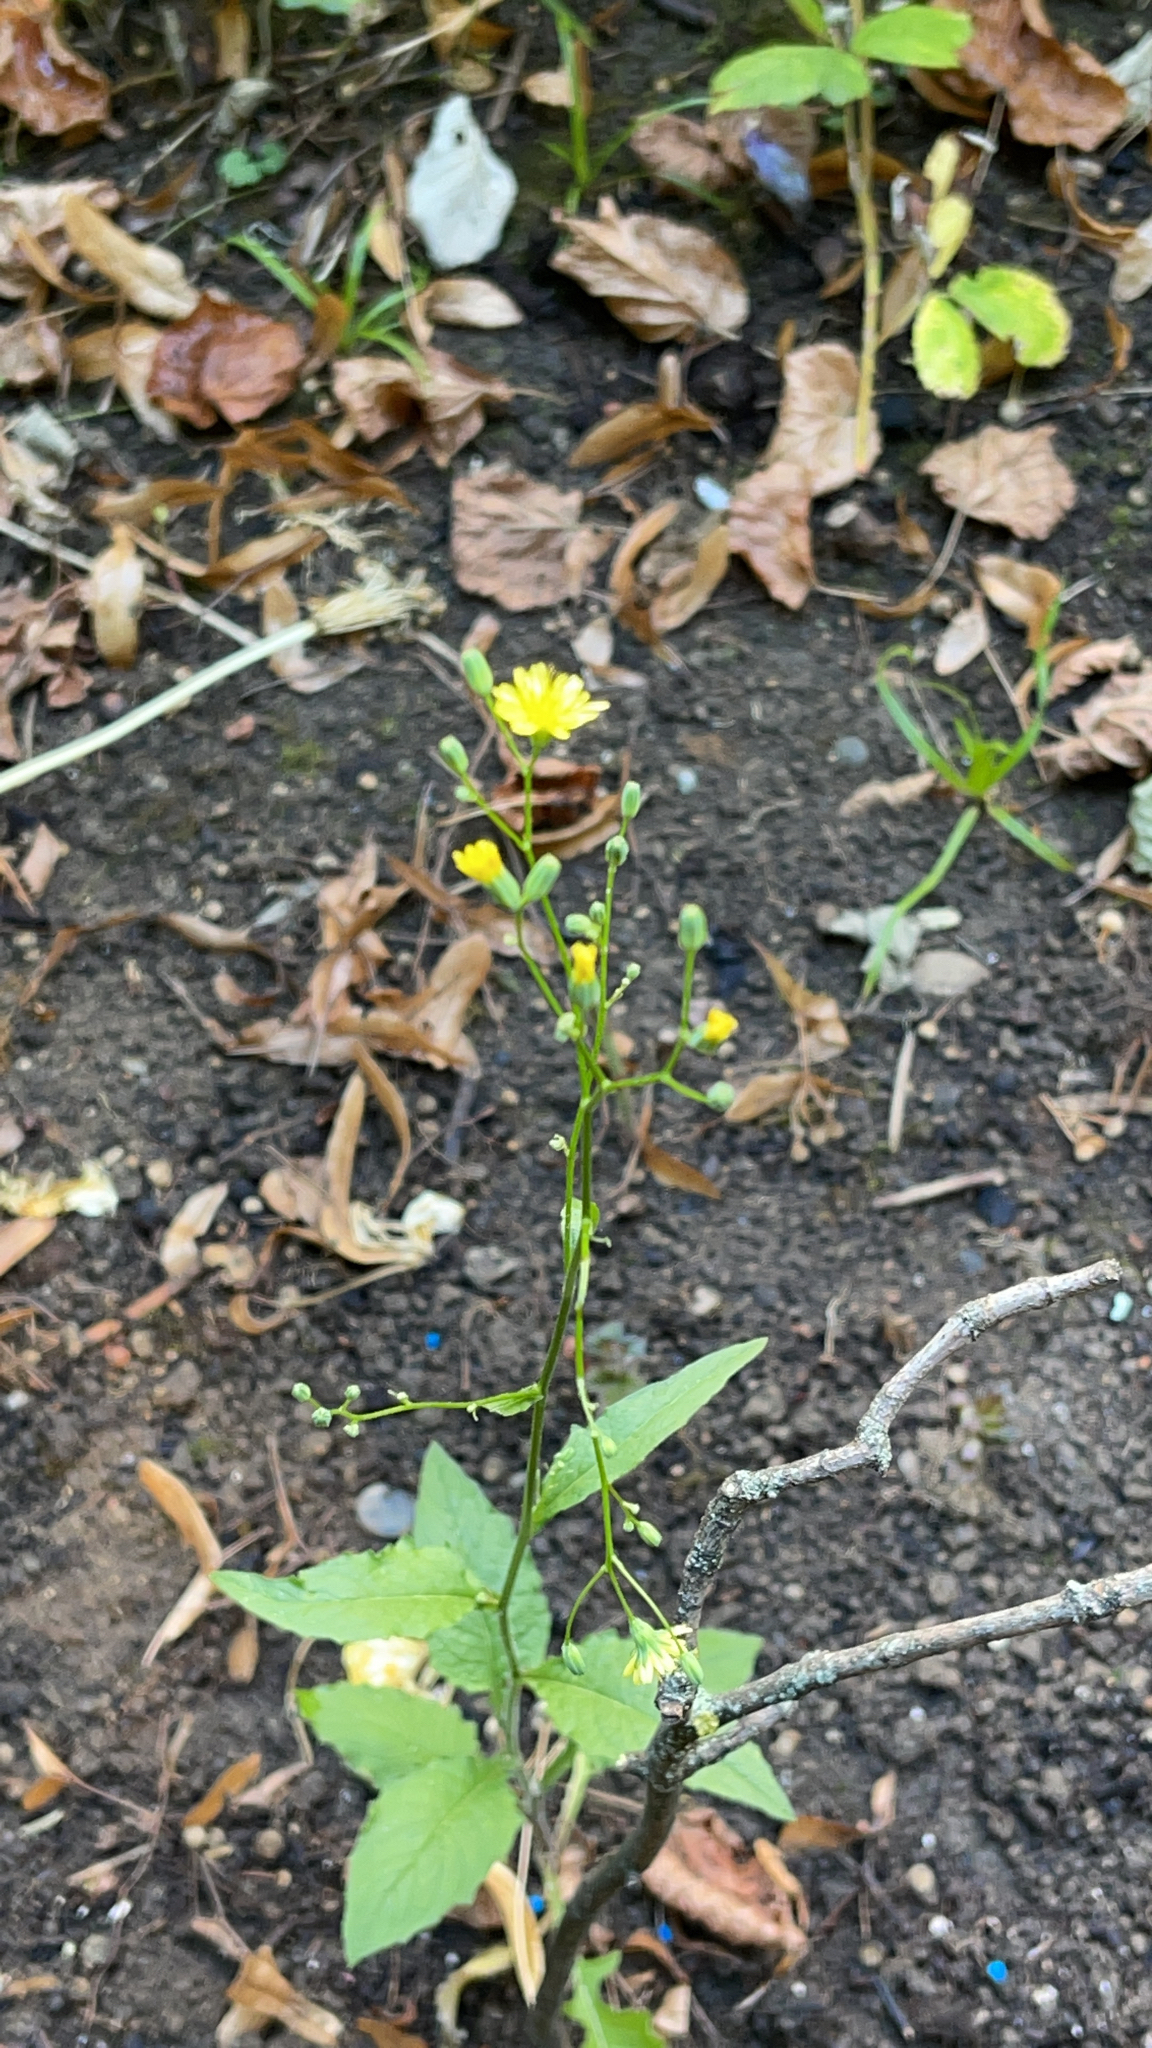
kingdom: Plantae
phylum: Tracheophyta
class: Magnoliopsida
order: Asterales
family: Asteraceae
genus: Lapsana
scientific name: Lapsana communis
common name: Nipplewort
